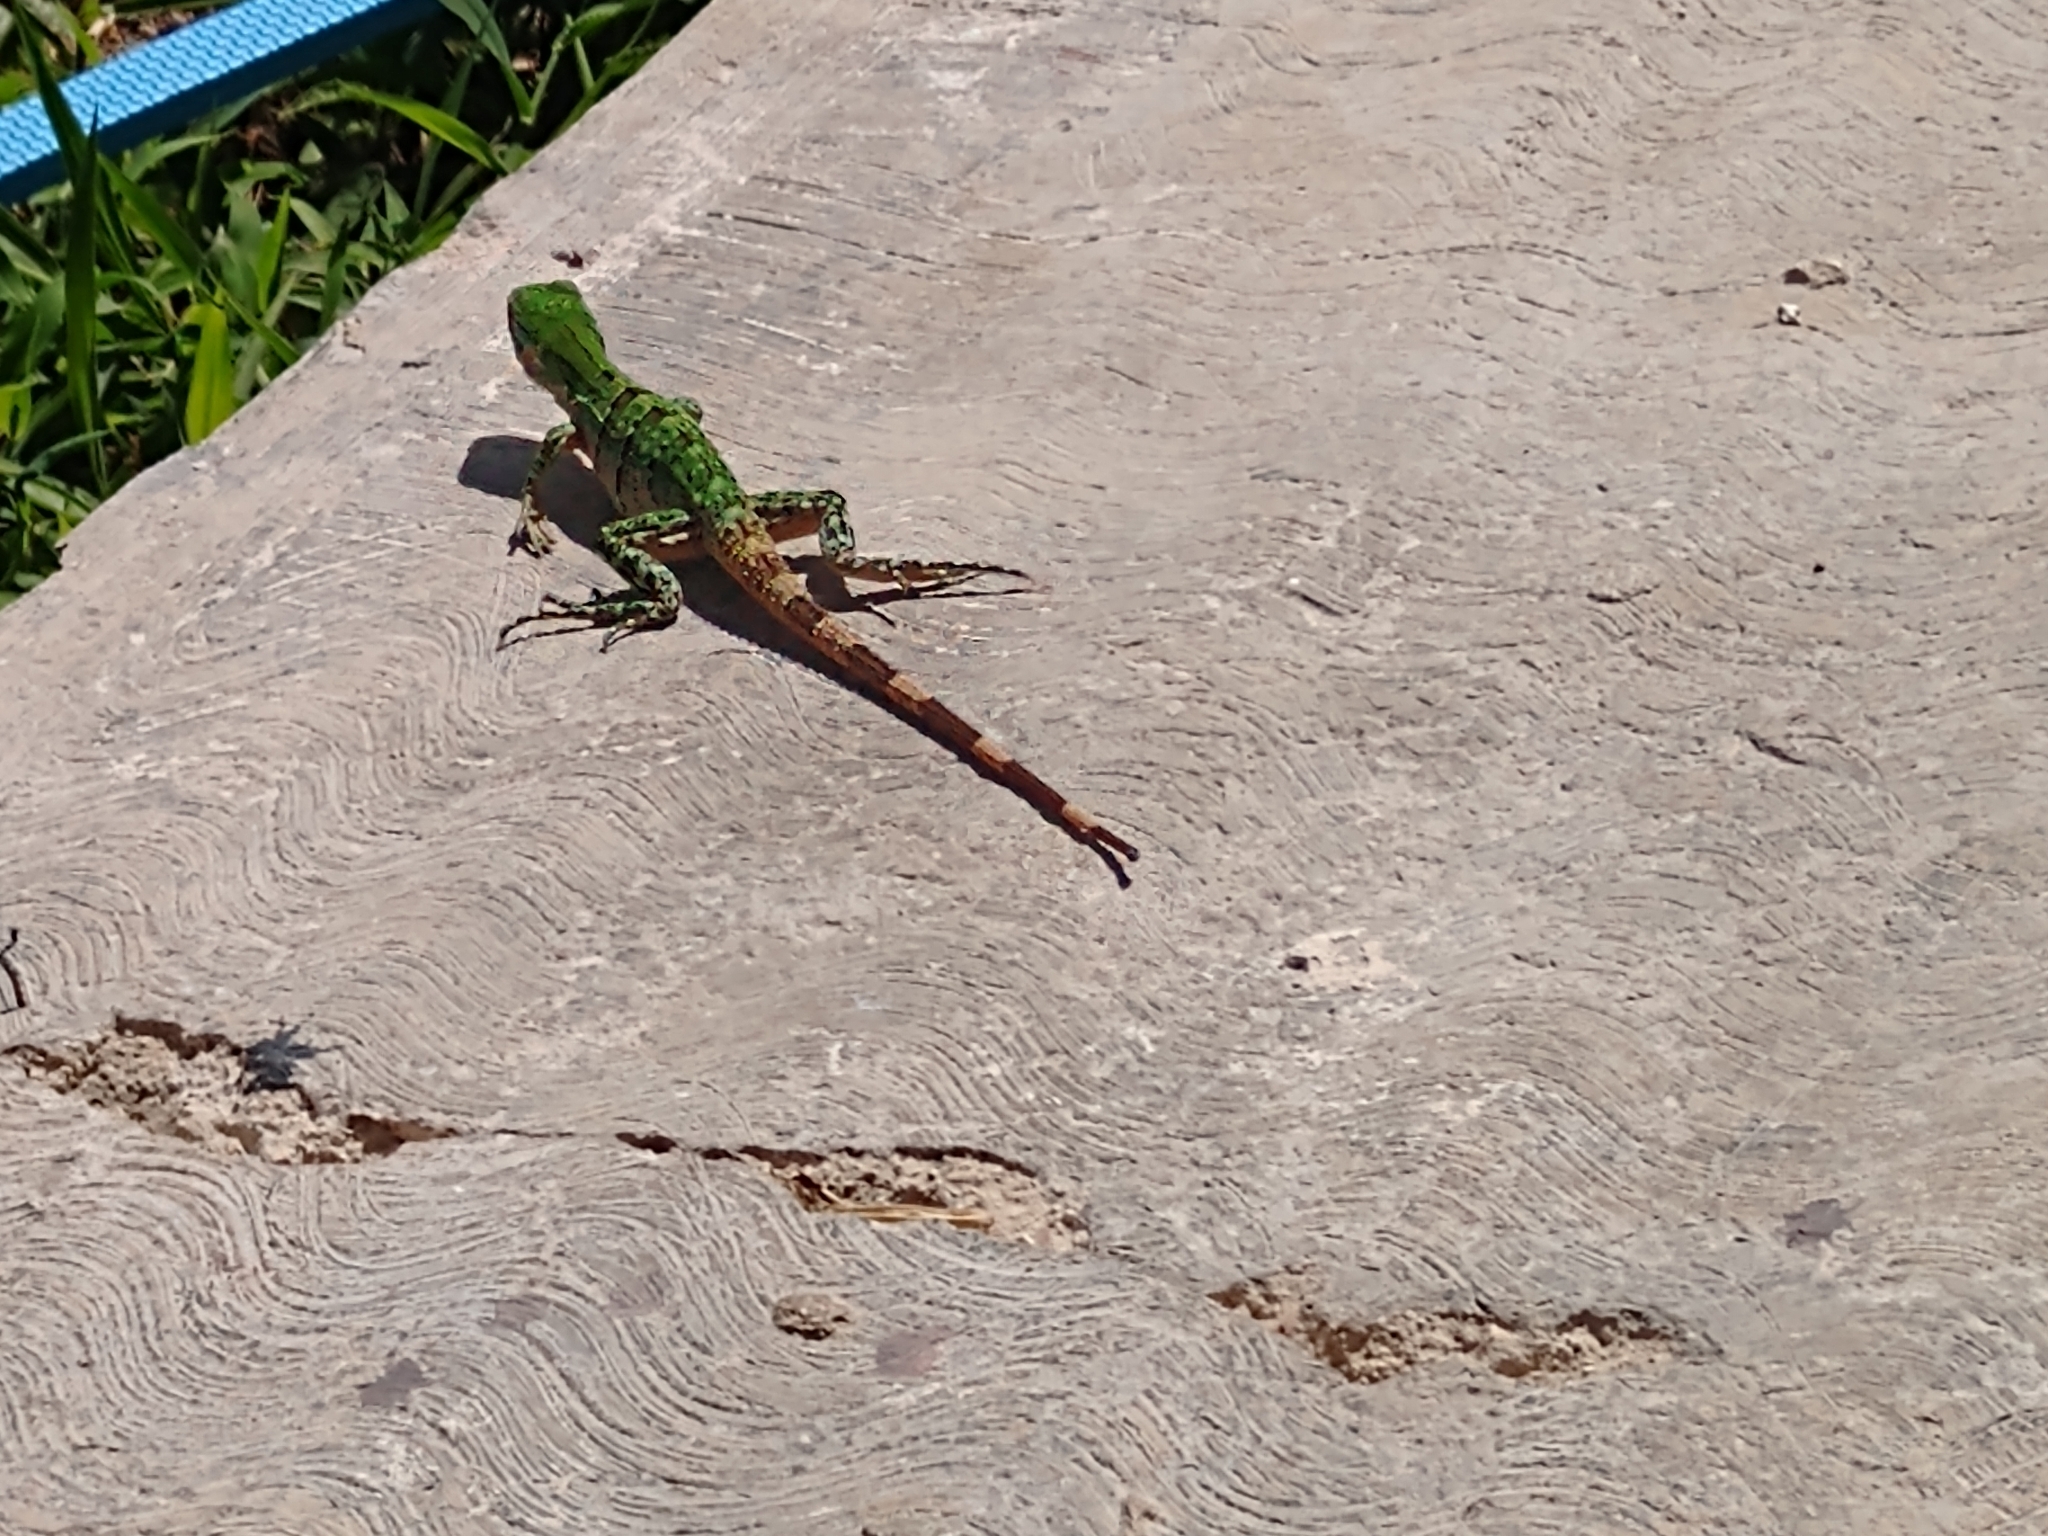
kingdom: Animalia
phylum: Chordata
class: Squamata
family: Iguanidae
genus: Ctenosaura
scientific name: Ctenosaura similis
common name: Black spiny-tailed iguana
